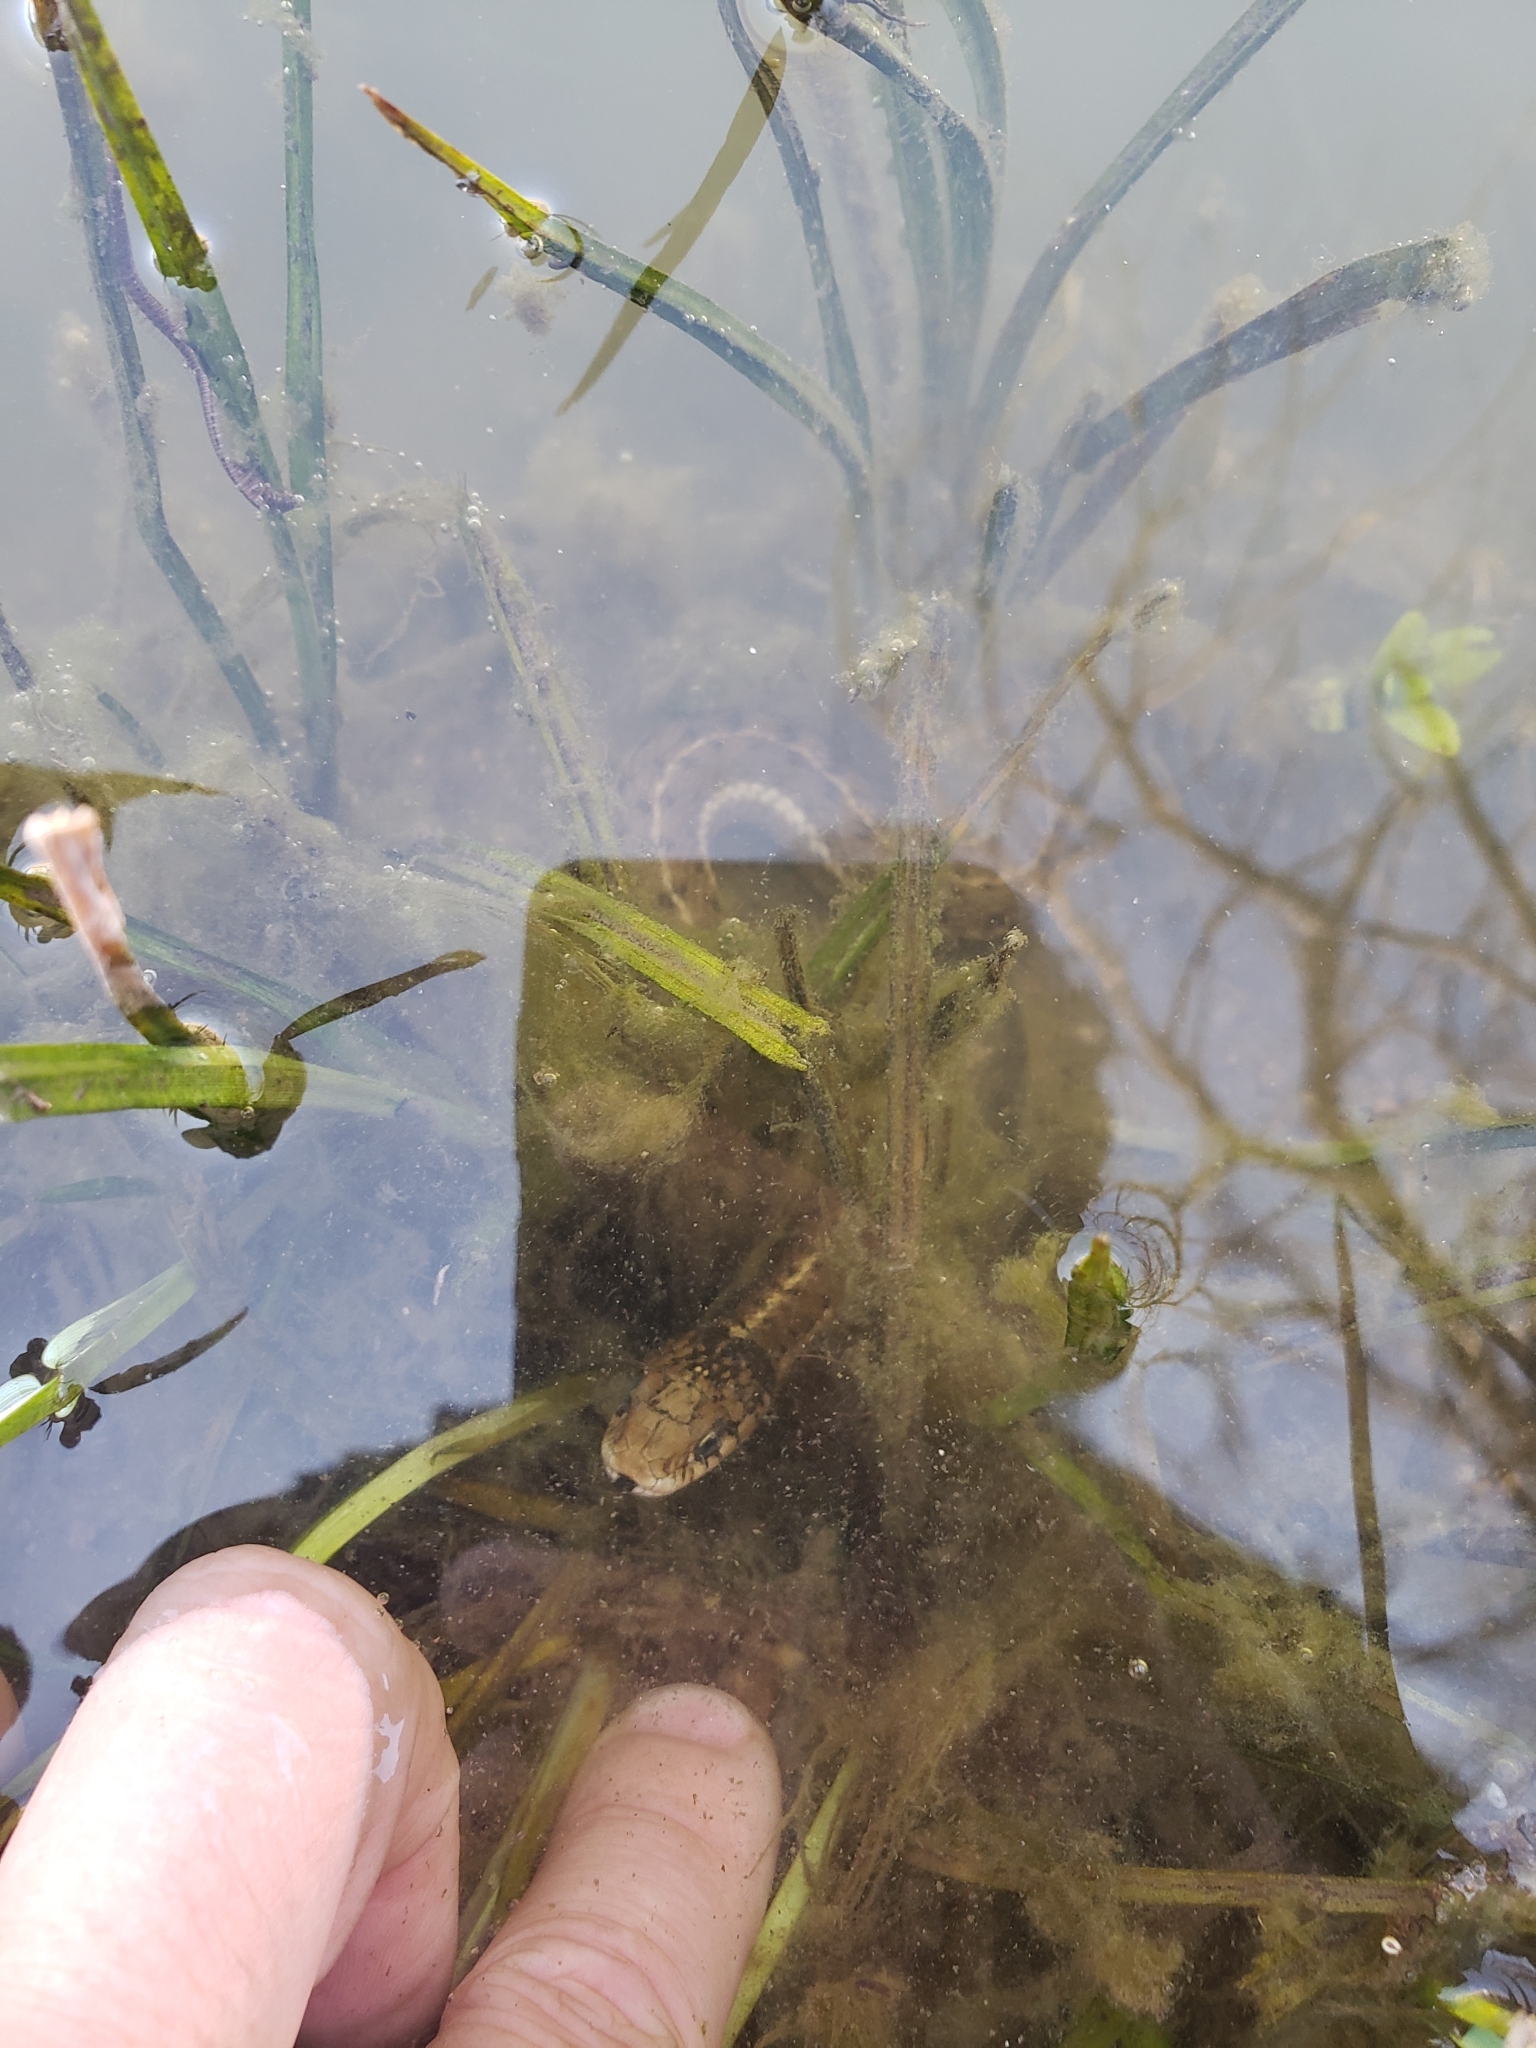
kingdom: Animalia
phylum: Chordata
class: Squamata
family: Colubridae
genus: Thamnophis
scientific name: Thamnophis elegans
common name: Western terrestrial garter snake
